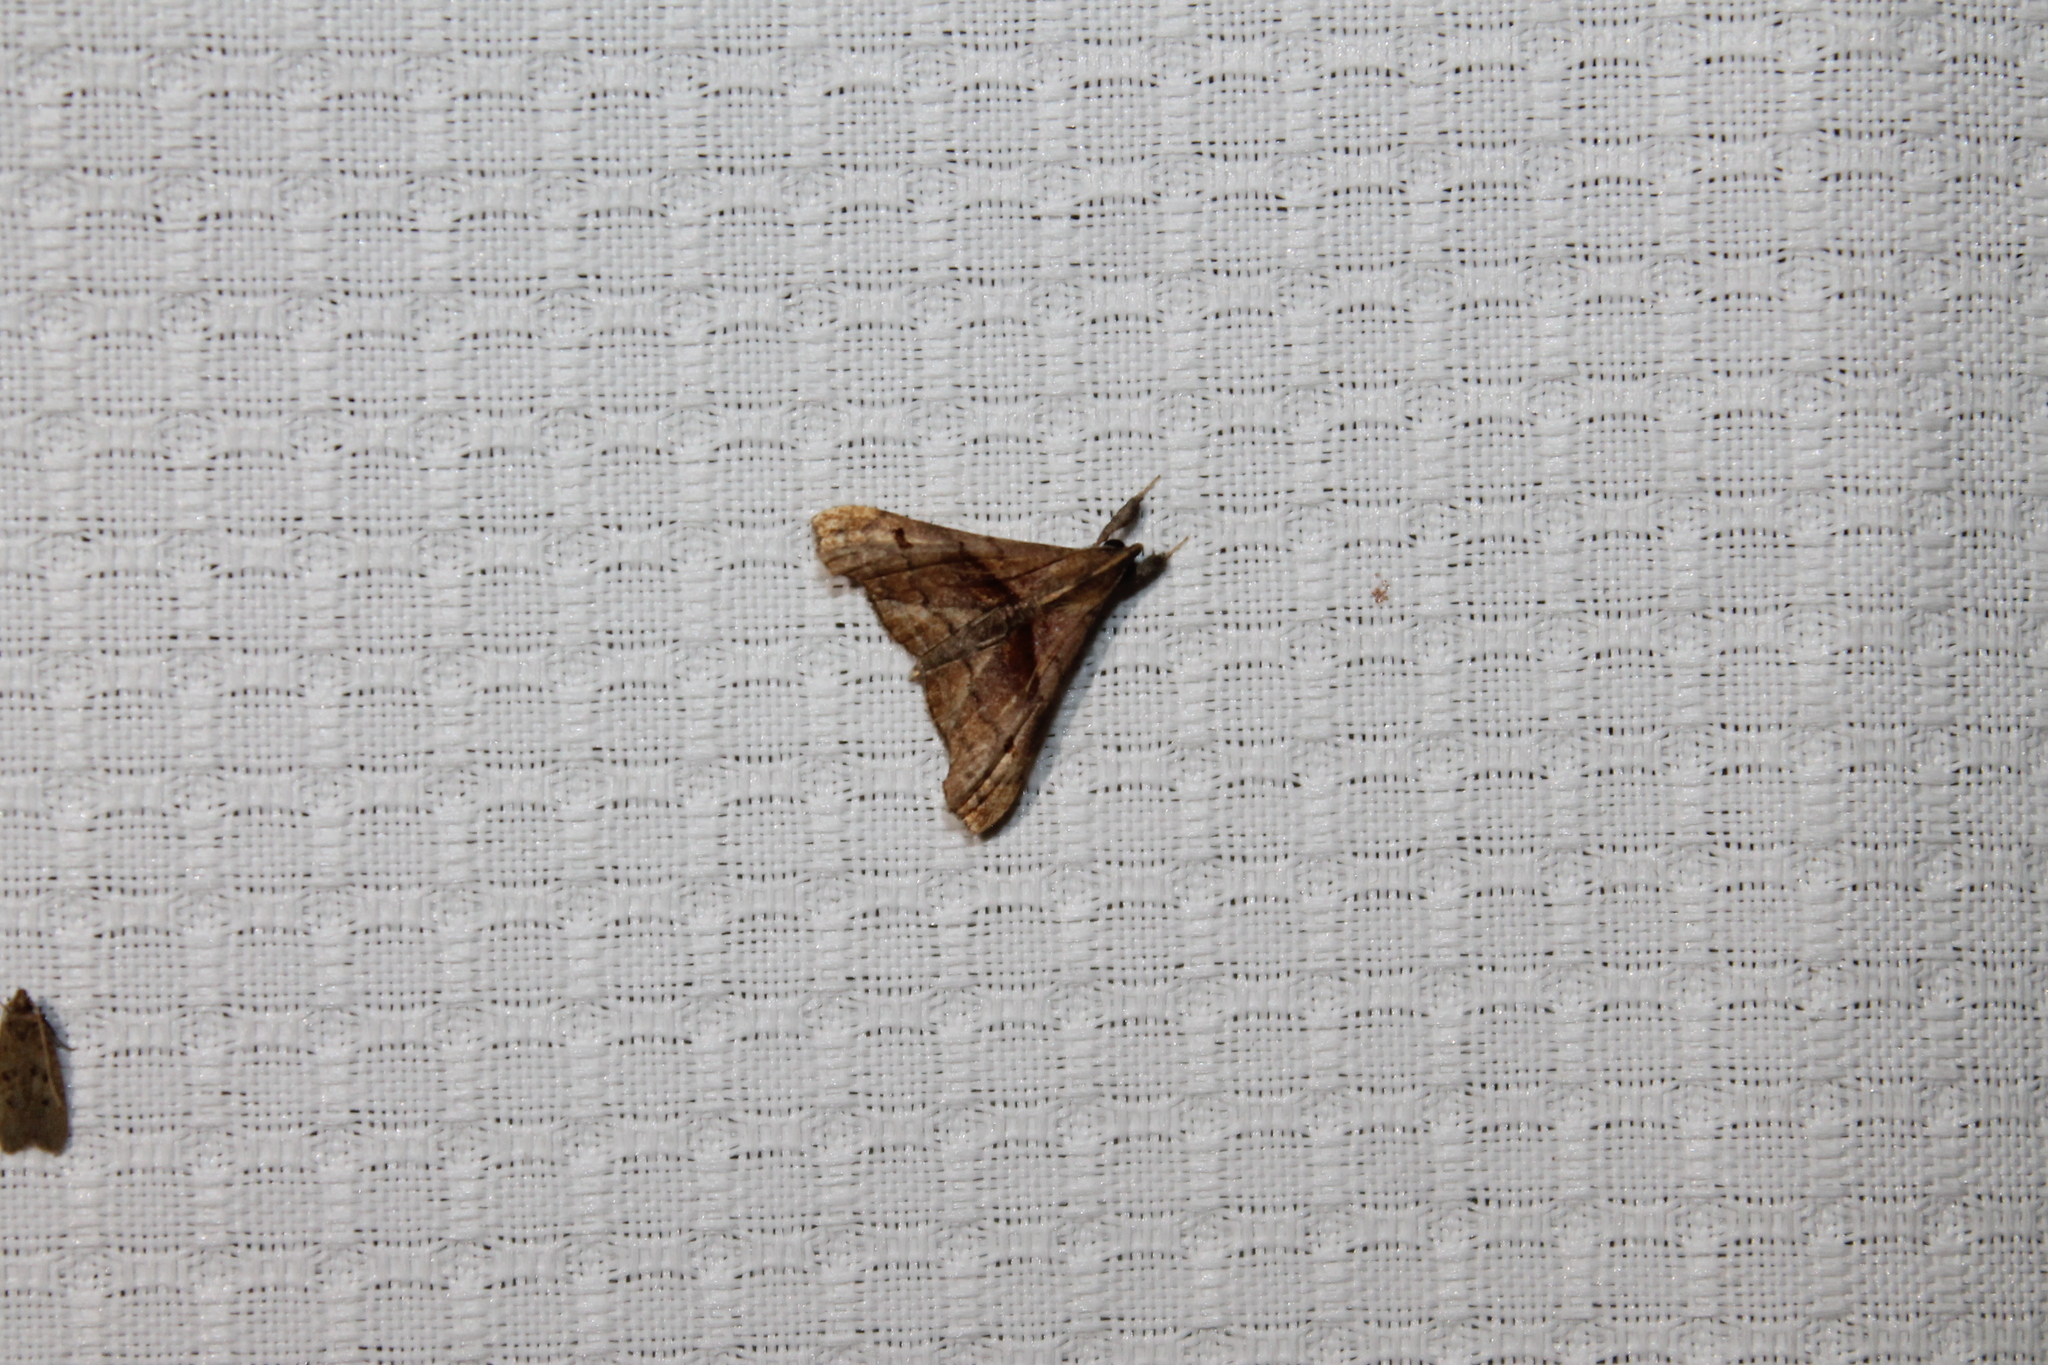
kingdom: Animalia
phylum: Arthropoda
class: Insecta
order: Lepidoptera
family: Erebidae
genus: Palthis
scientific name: Palthis angulalis
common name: Dark-spotted palthis moth
